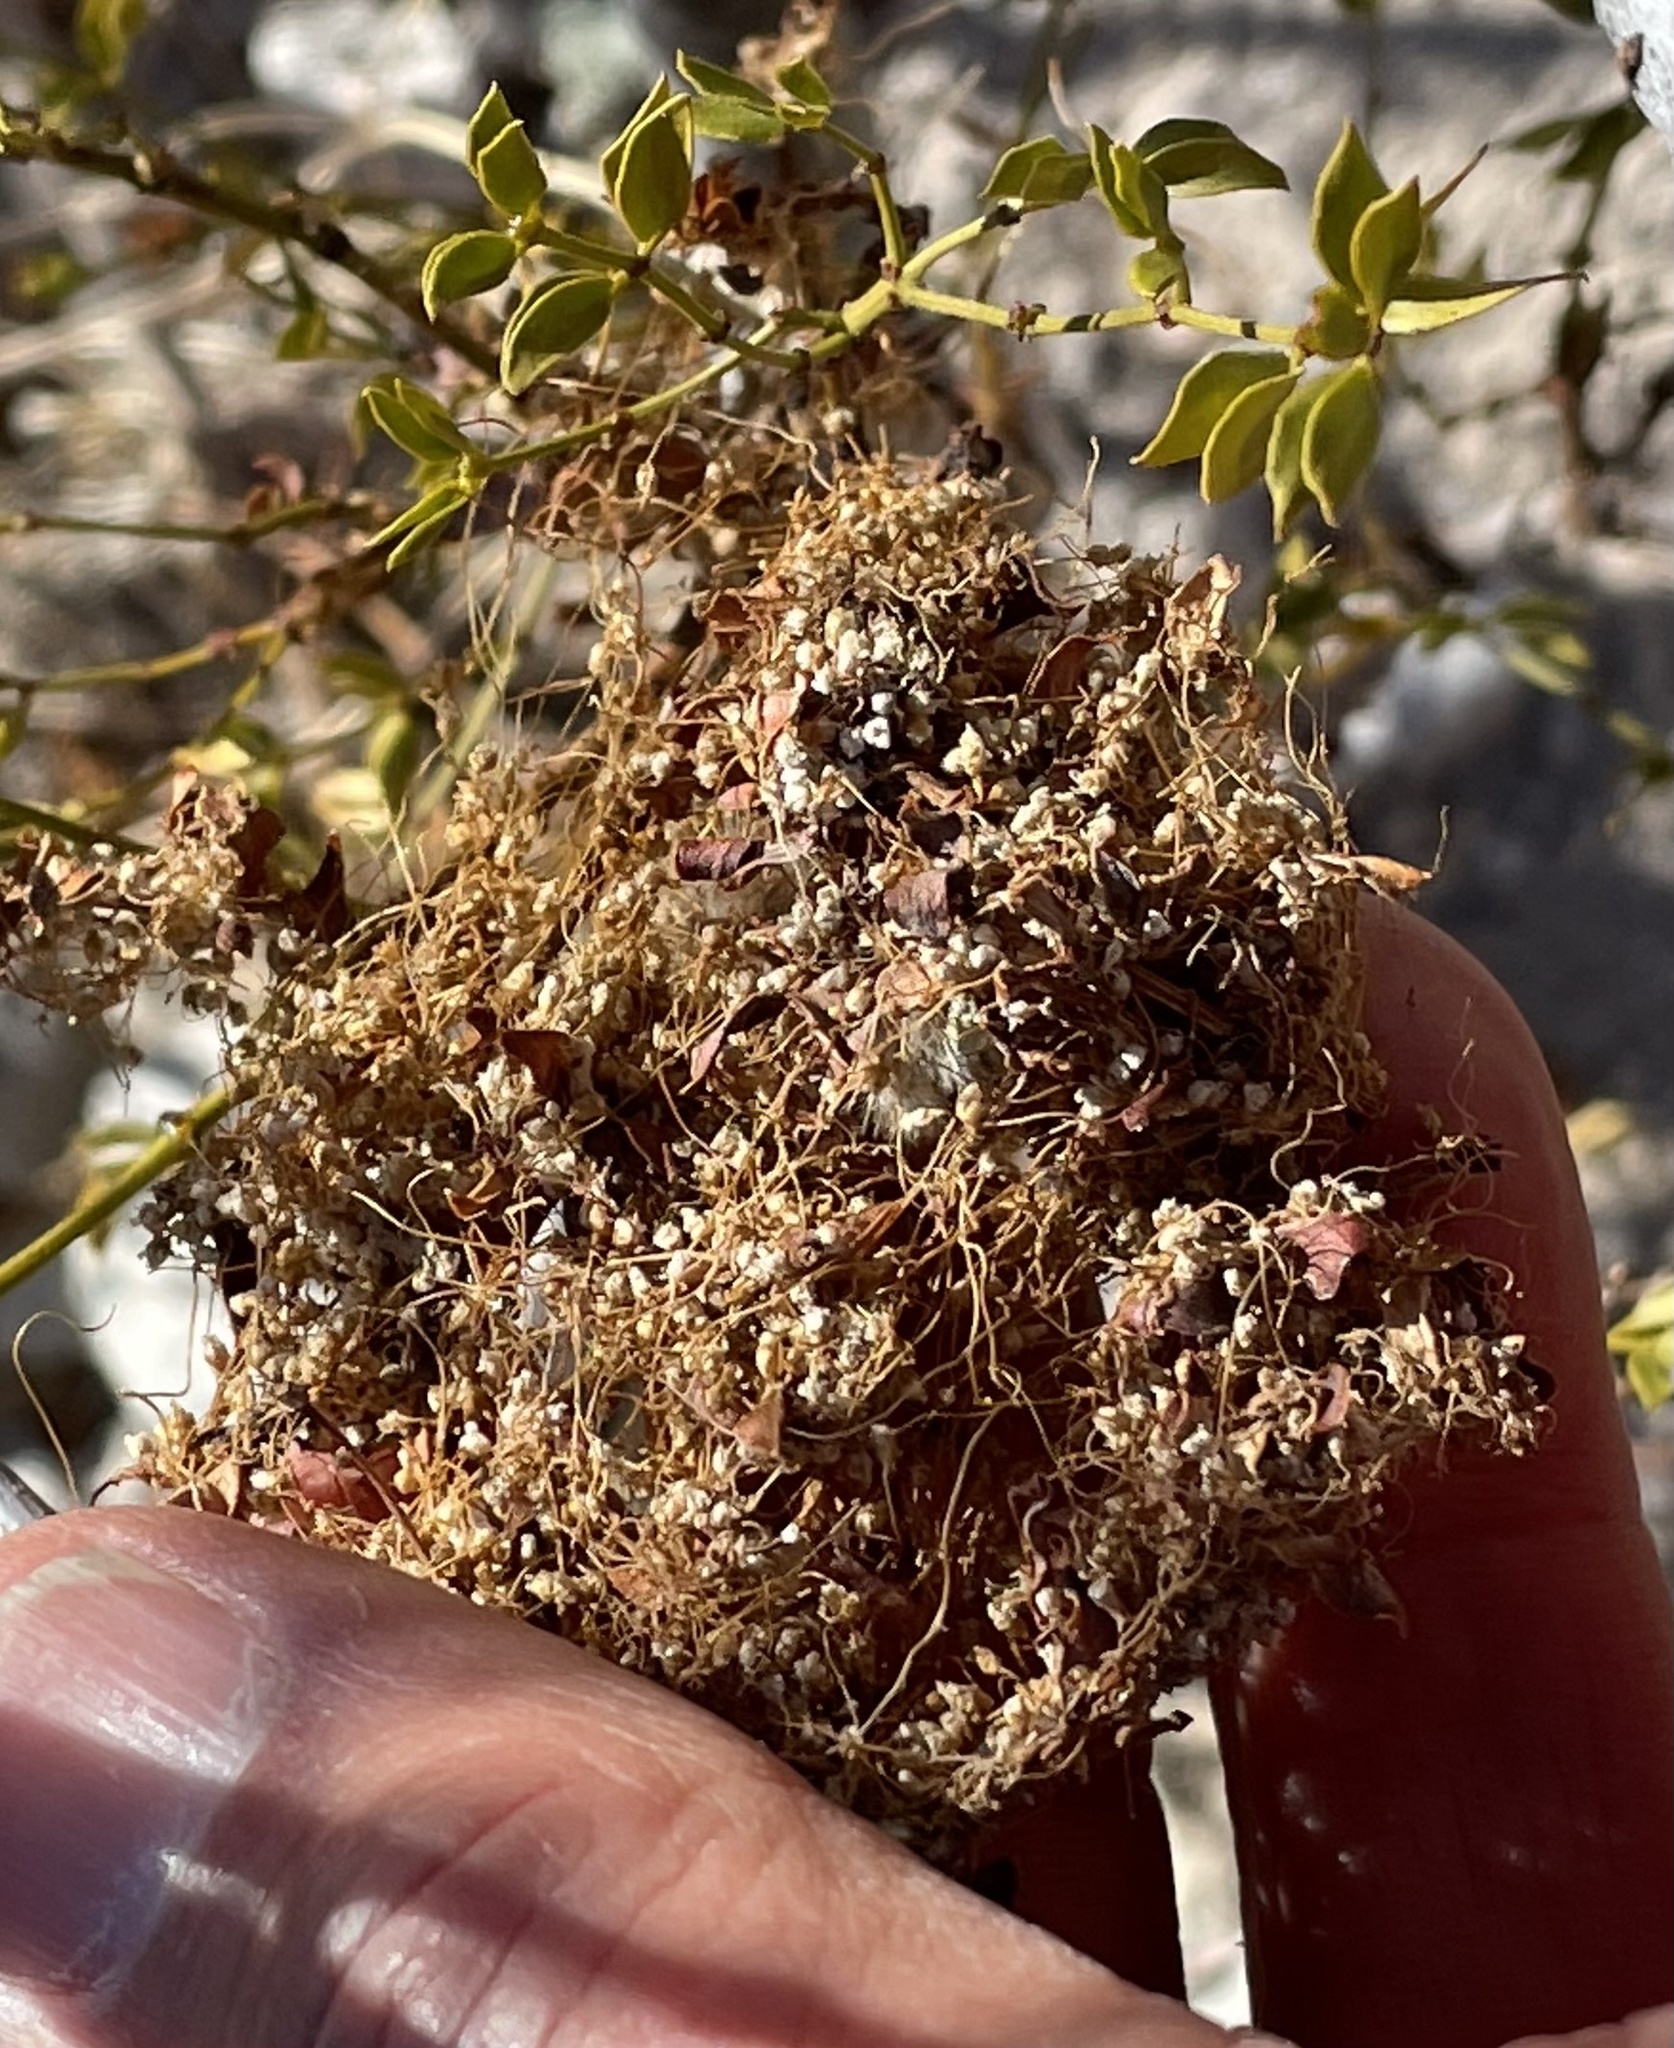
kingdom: Plantae
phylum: Tracheophyta
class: Magnoliopsida
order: Solanales
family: Convolvulaceae
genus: Cuscuta
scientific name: Cuscuta
